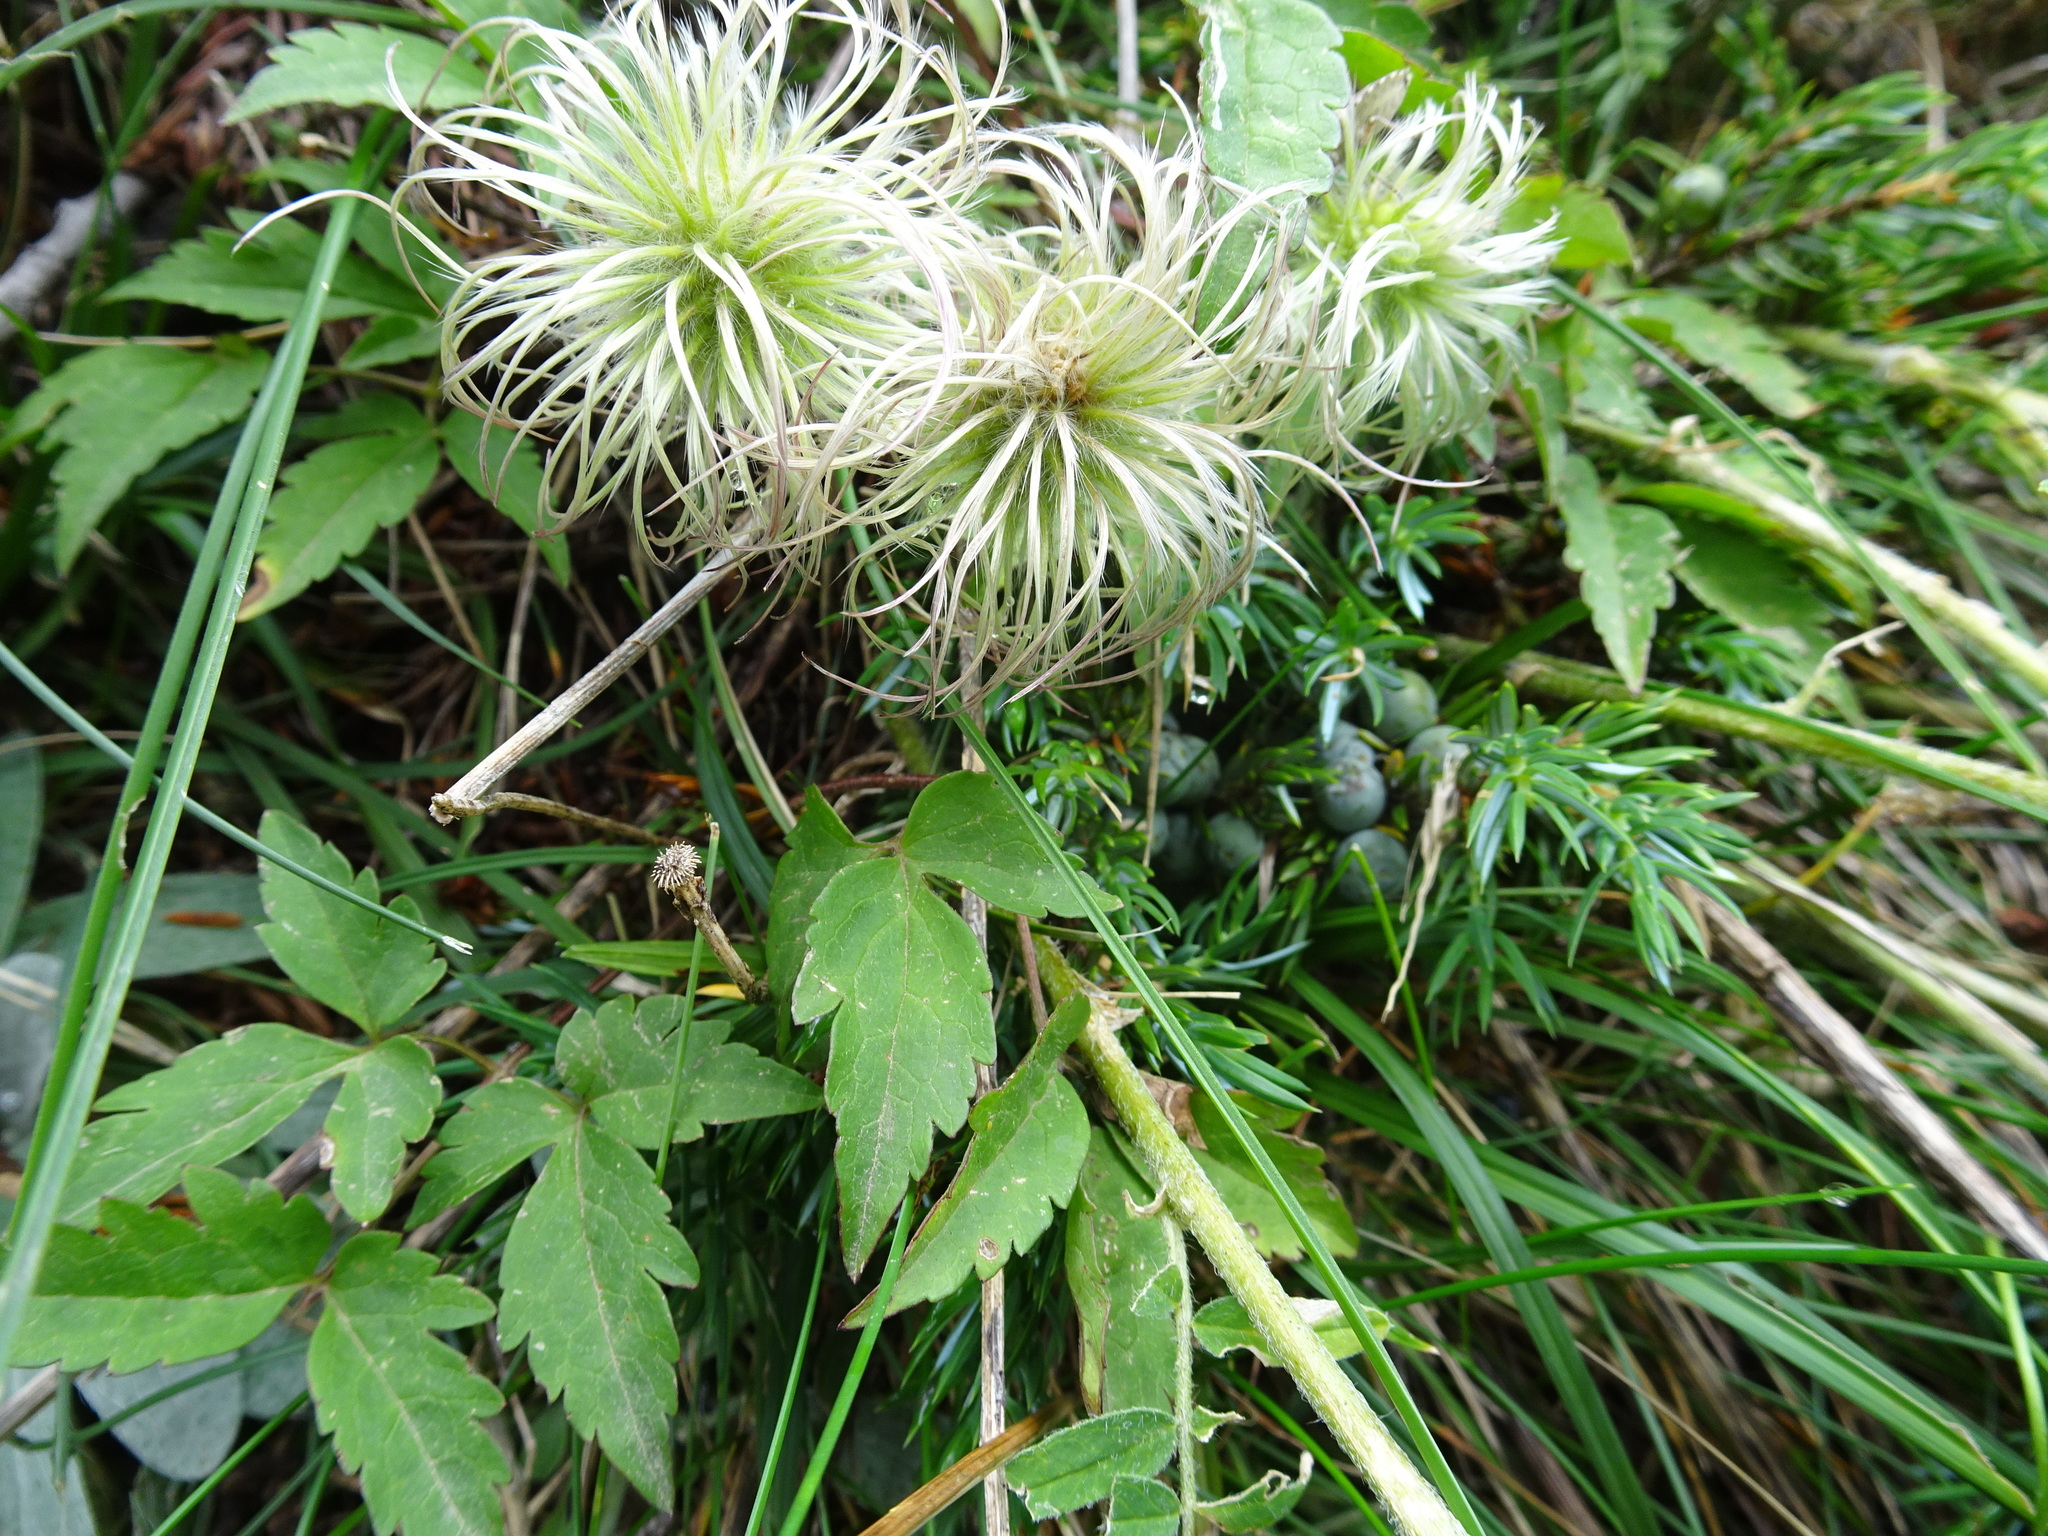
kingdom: Plantae
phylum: Tracheophyta
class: Magnoliopsida
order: Ranunculales
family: Ranunculaceae
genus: Clematis
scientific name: Clematis alpina
